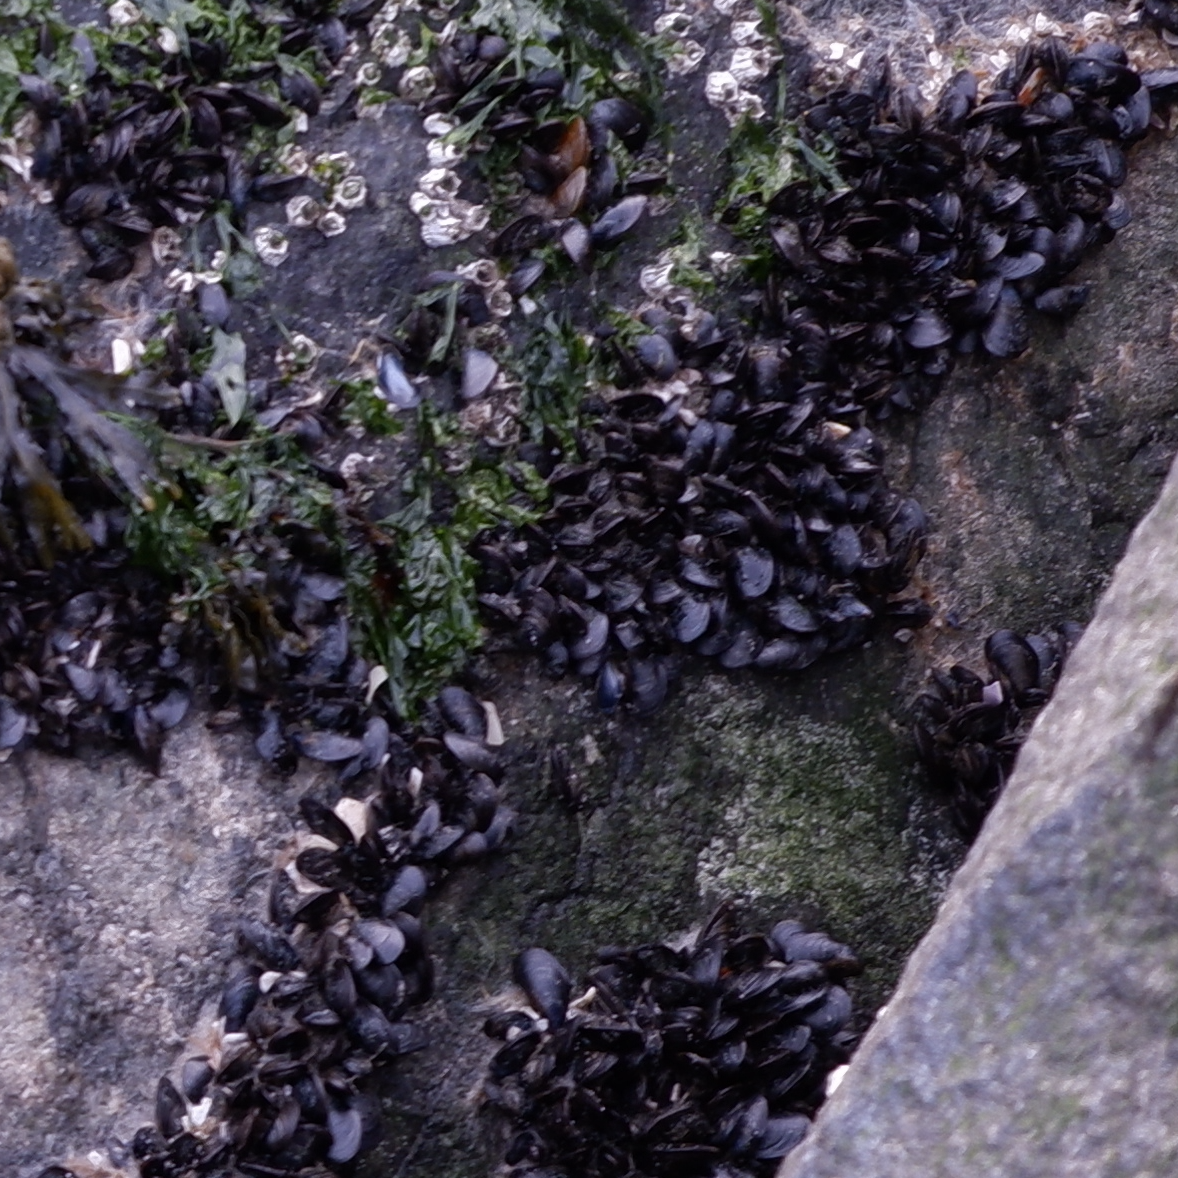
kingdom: Animalia
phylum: Mollusca
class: Bivalvia
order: Mytilida
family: Mytilidae
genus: Mytilus
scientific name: Mytilus edulis
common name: Blue mussel
